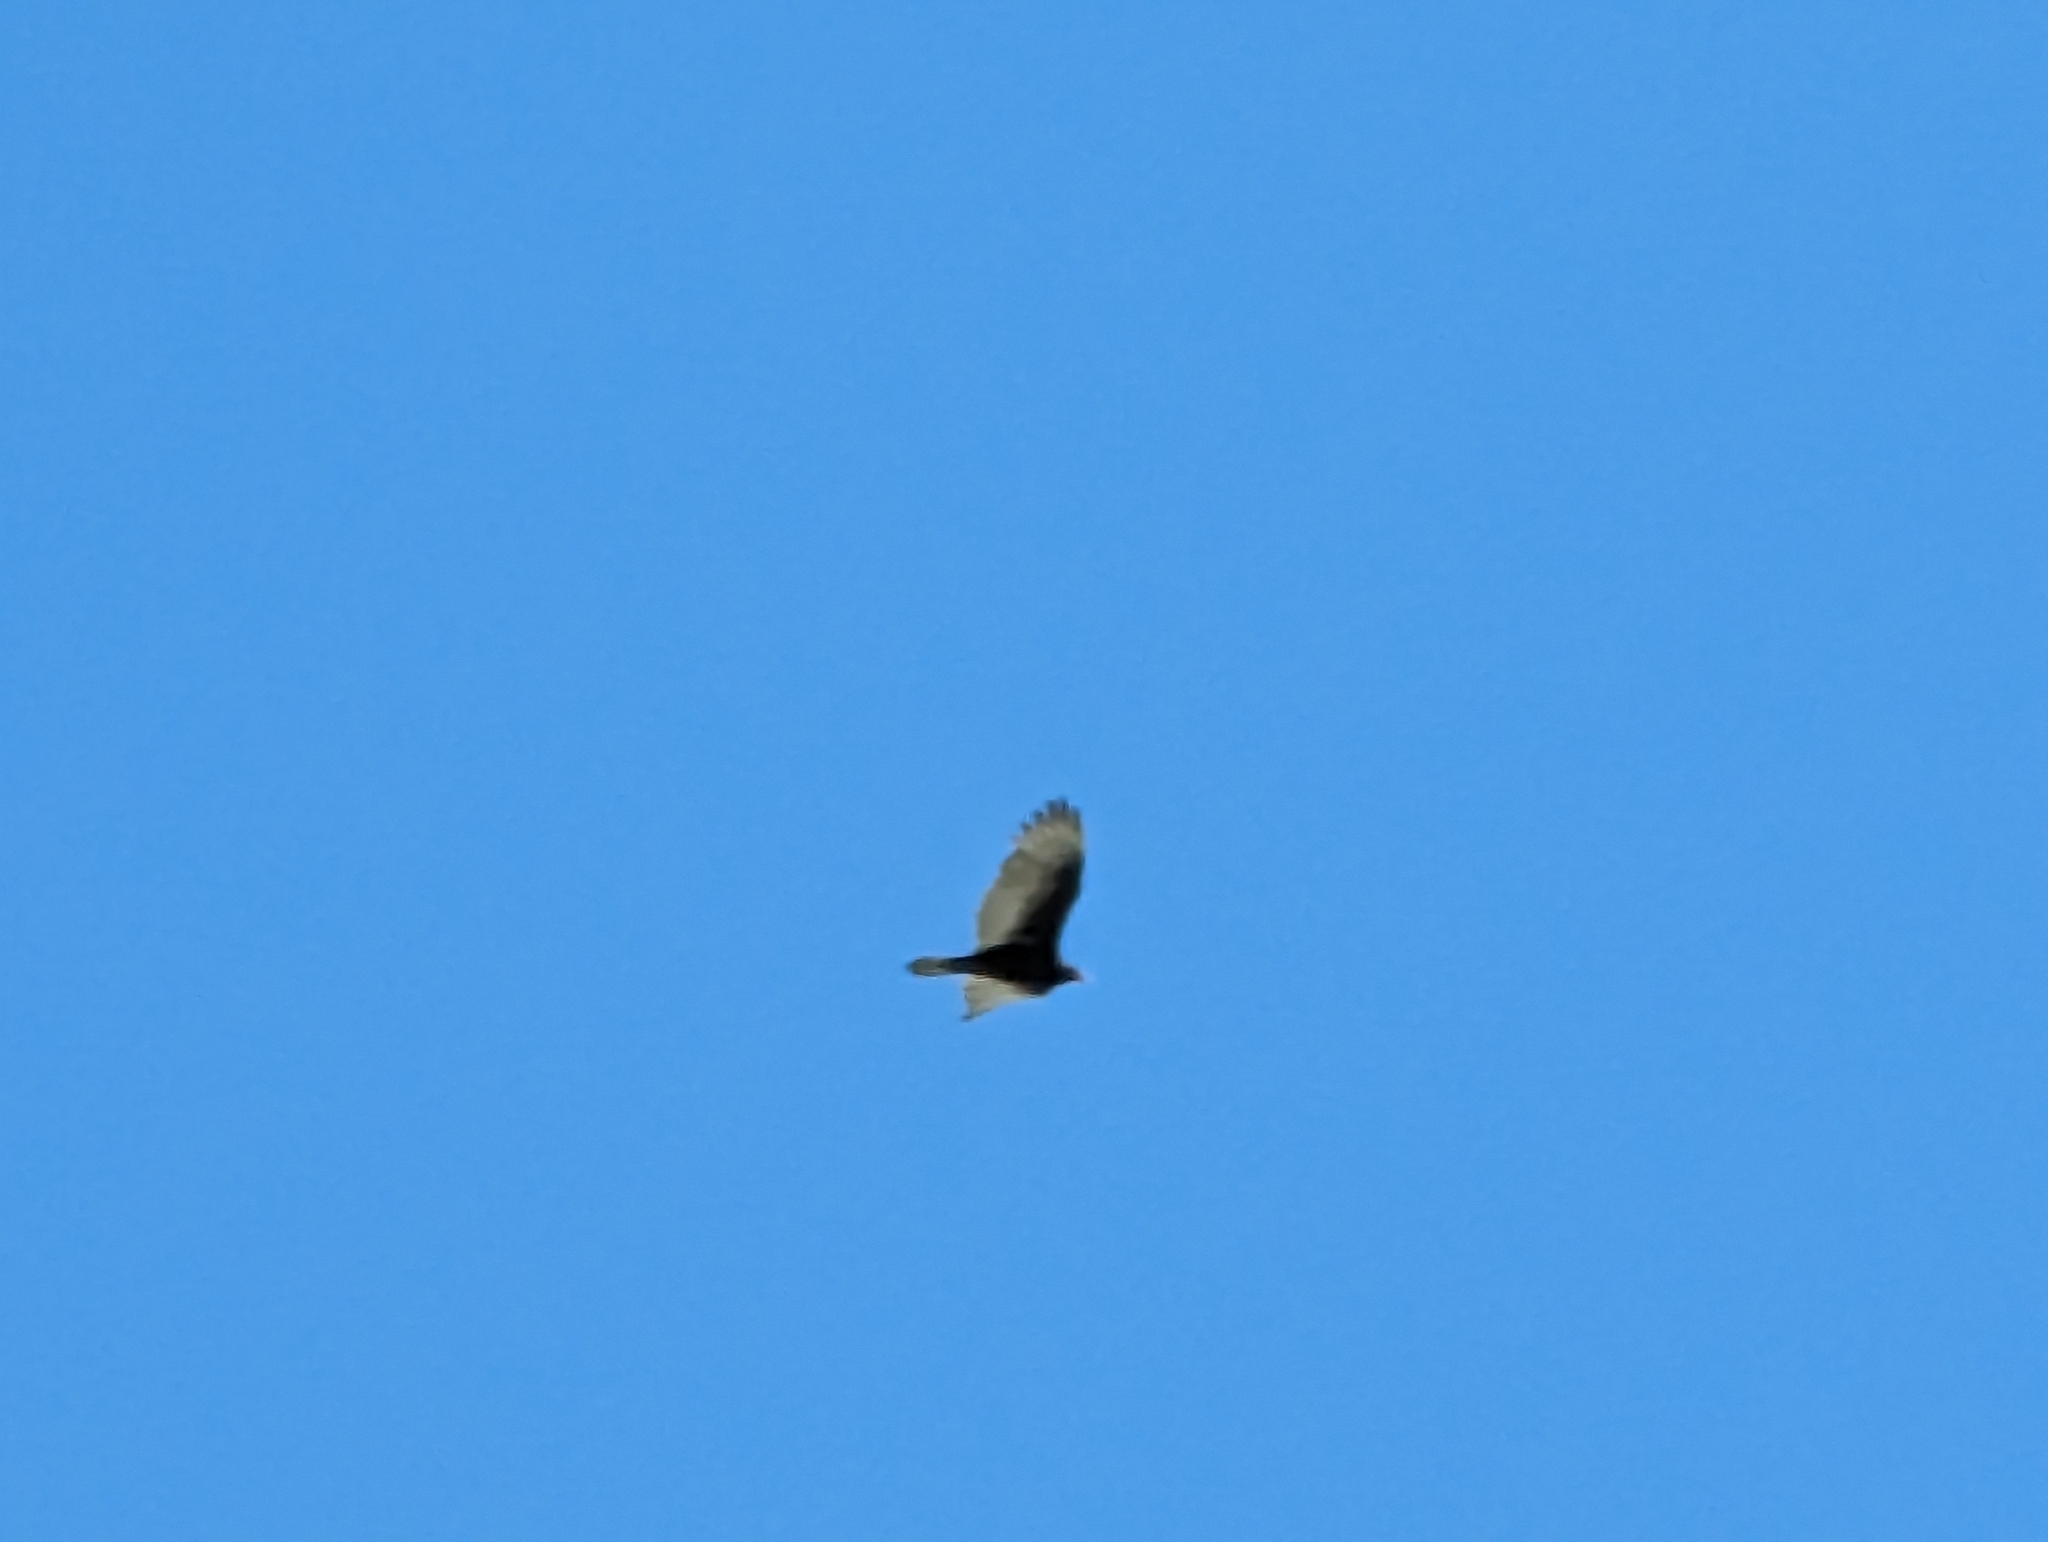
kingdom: Animalia
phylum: Chordata
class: Aves
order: Accipitriformes
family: Cathartidae
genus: Cathartes
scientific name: Cathartes aura
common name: Turkey vulture
